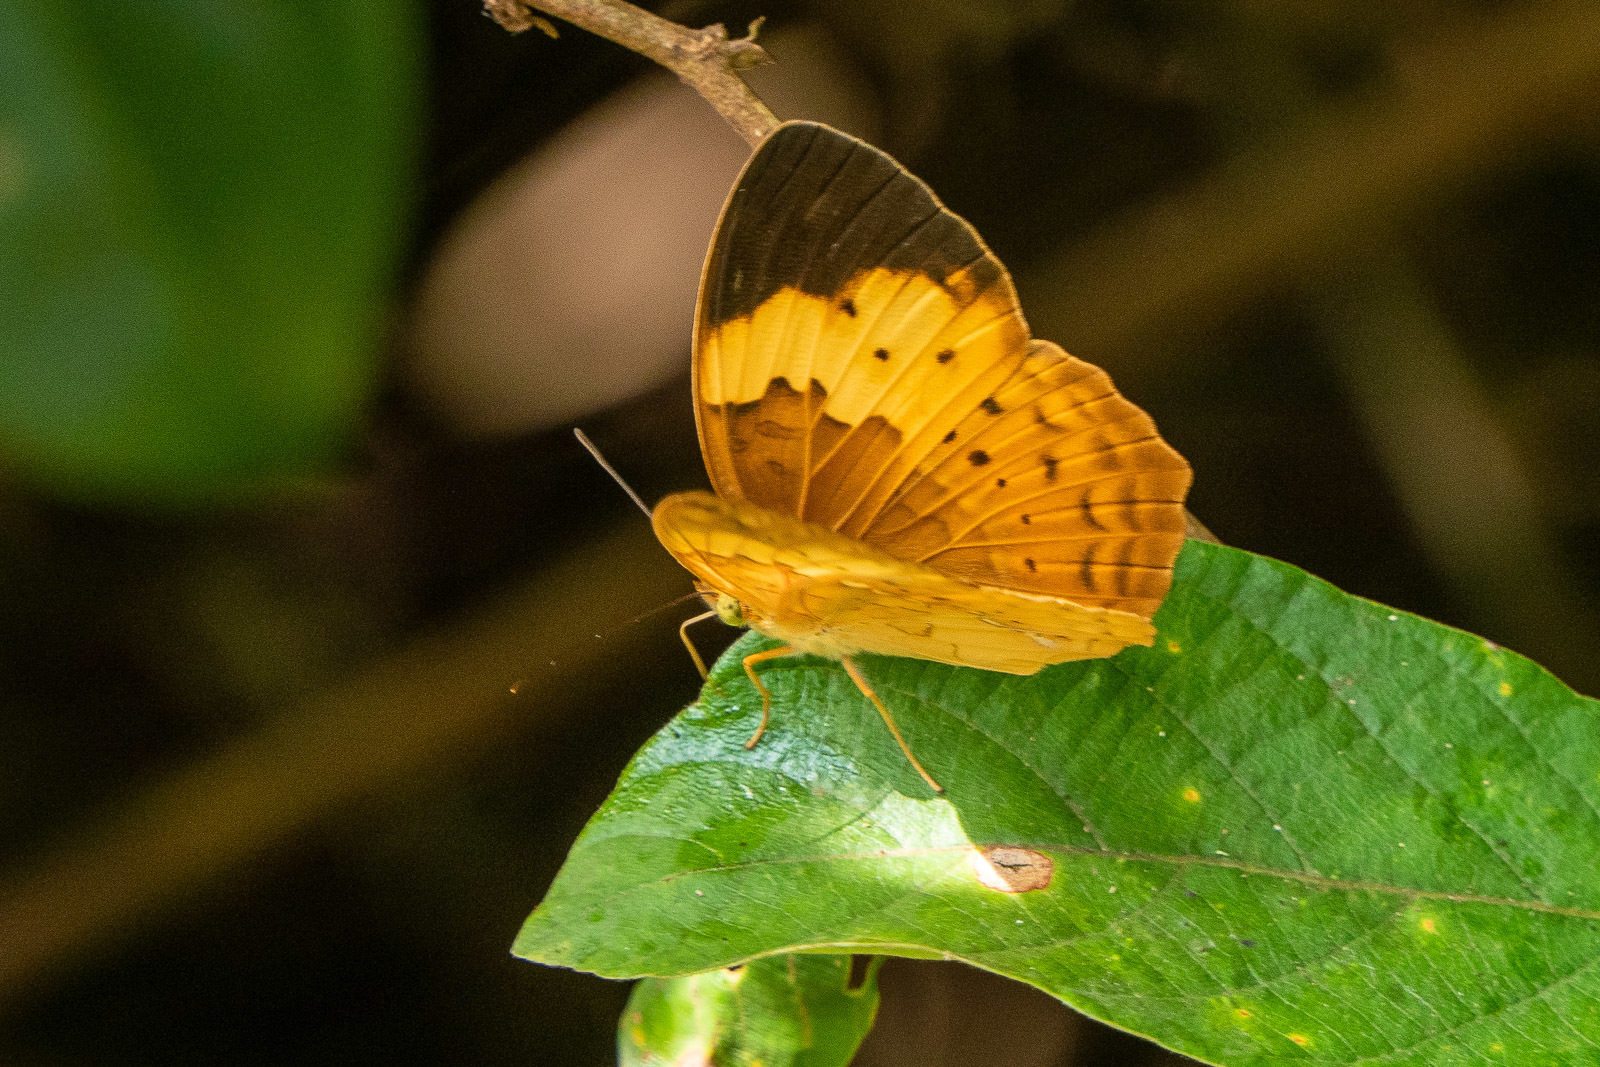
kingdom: Animalia
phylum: Arthropoda
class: Insecta
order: Lepidoptera
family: Nymphalidae
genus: Cupha
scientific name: Cupha erymanthis
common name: Rustic
